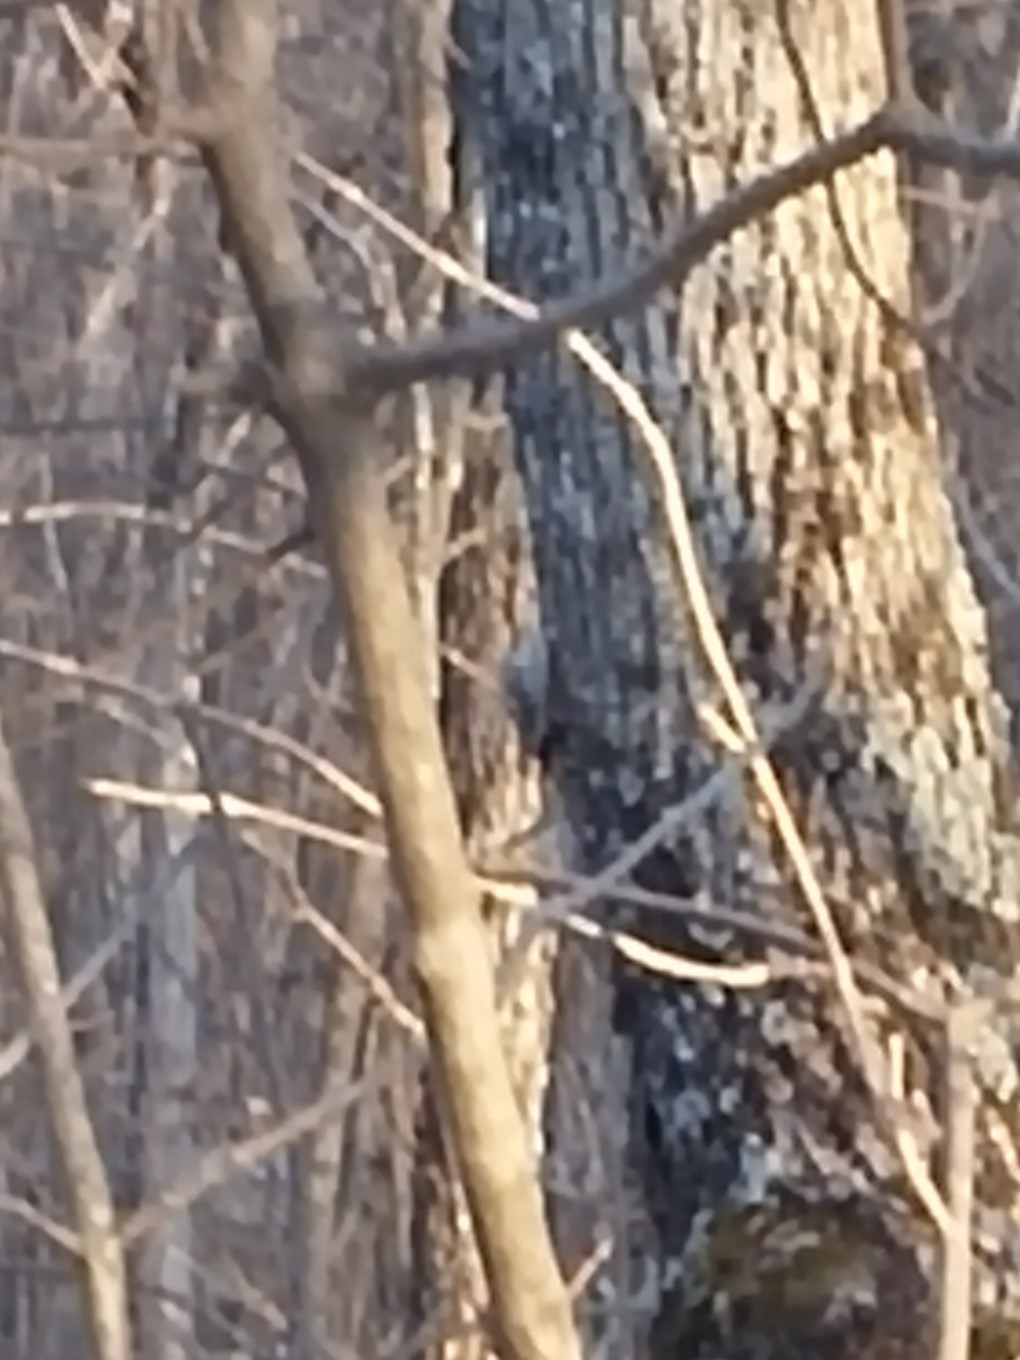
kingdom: Animalia
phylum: Chordata
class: Aves
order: Passeriformes
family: Certhiidae
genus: Certhia
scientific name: Certhia americana
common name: Brown creeper
